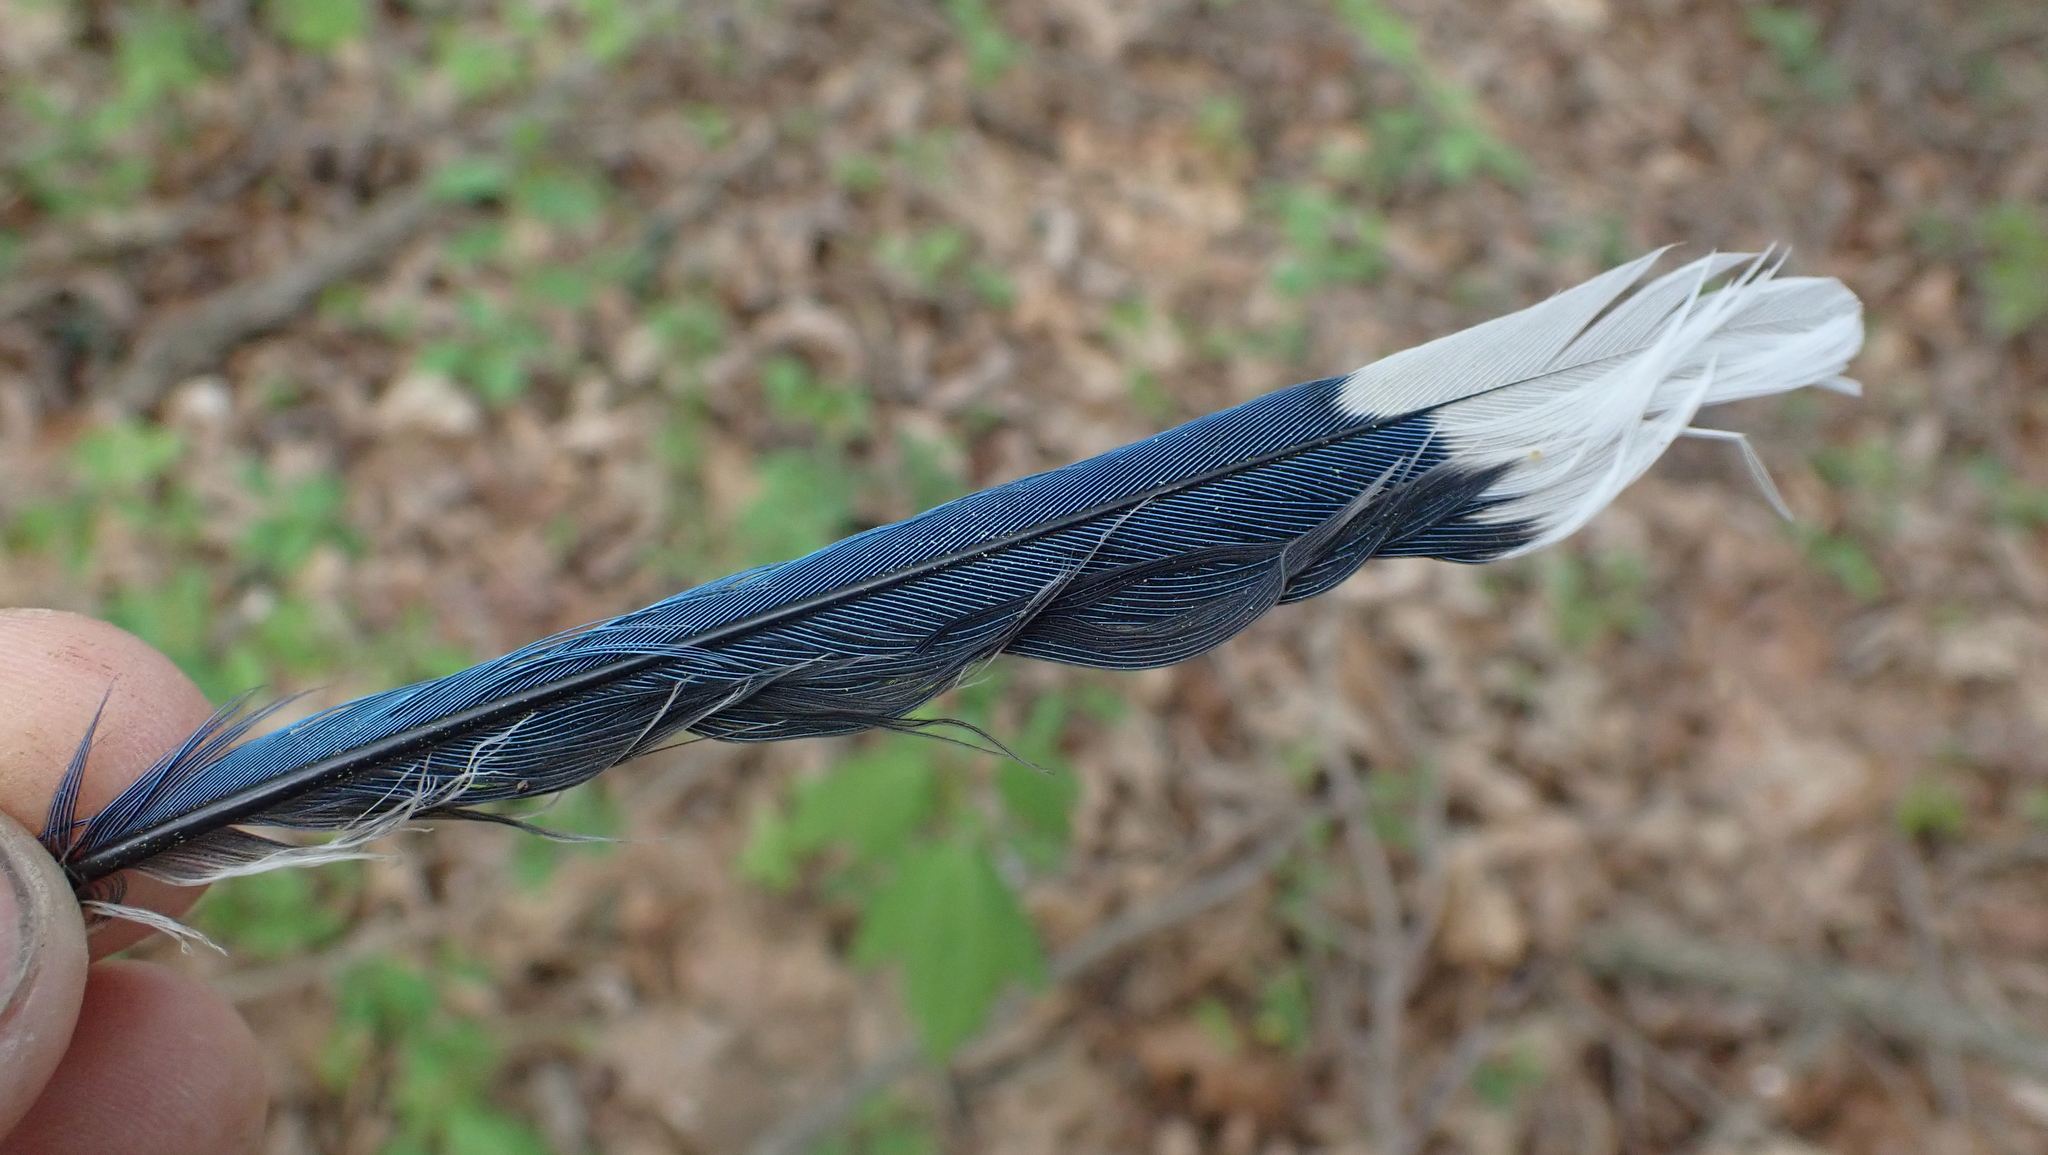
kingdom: Animalia
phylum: Chordata
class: Aves
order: Passeriformes
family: Corvidae
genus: Cyanocitta
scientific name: Cyanocitta cristata
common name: Blue jay
